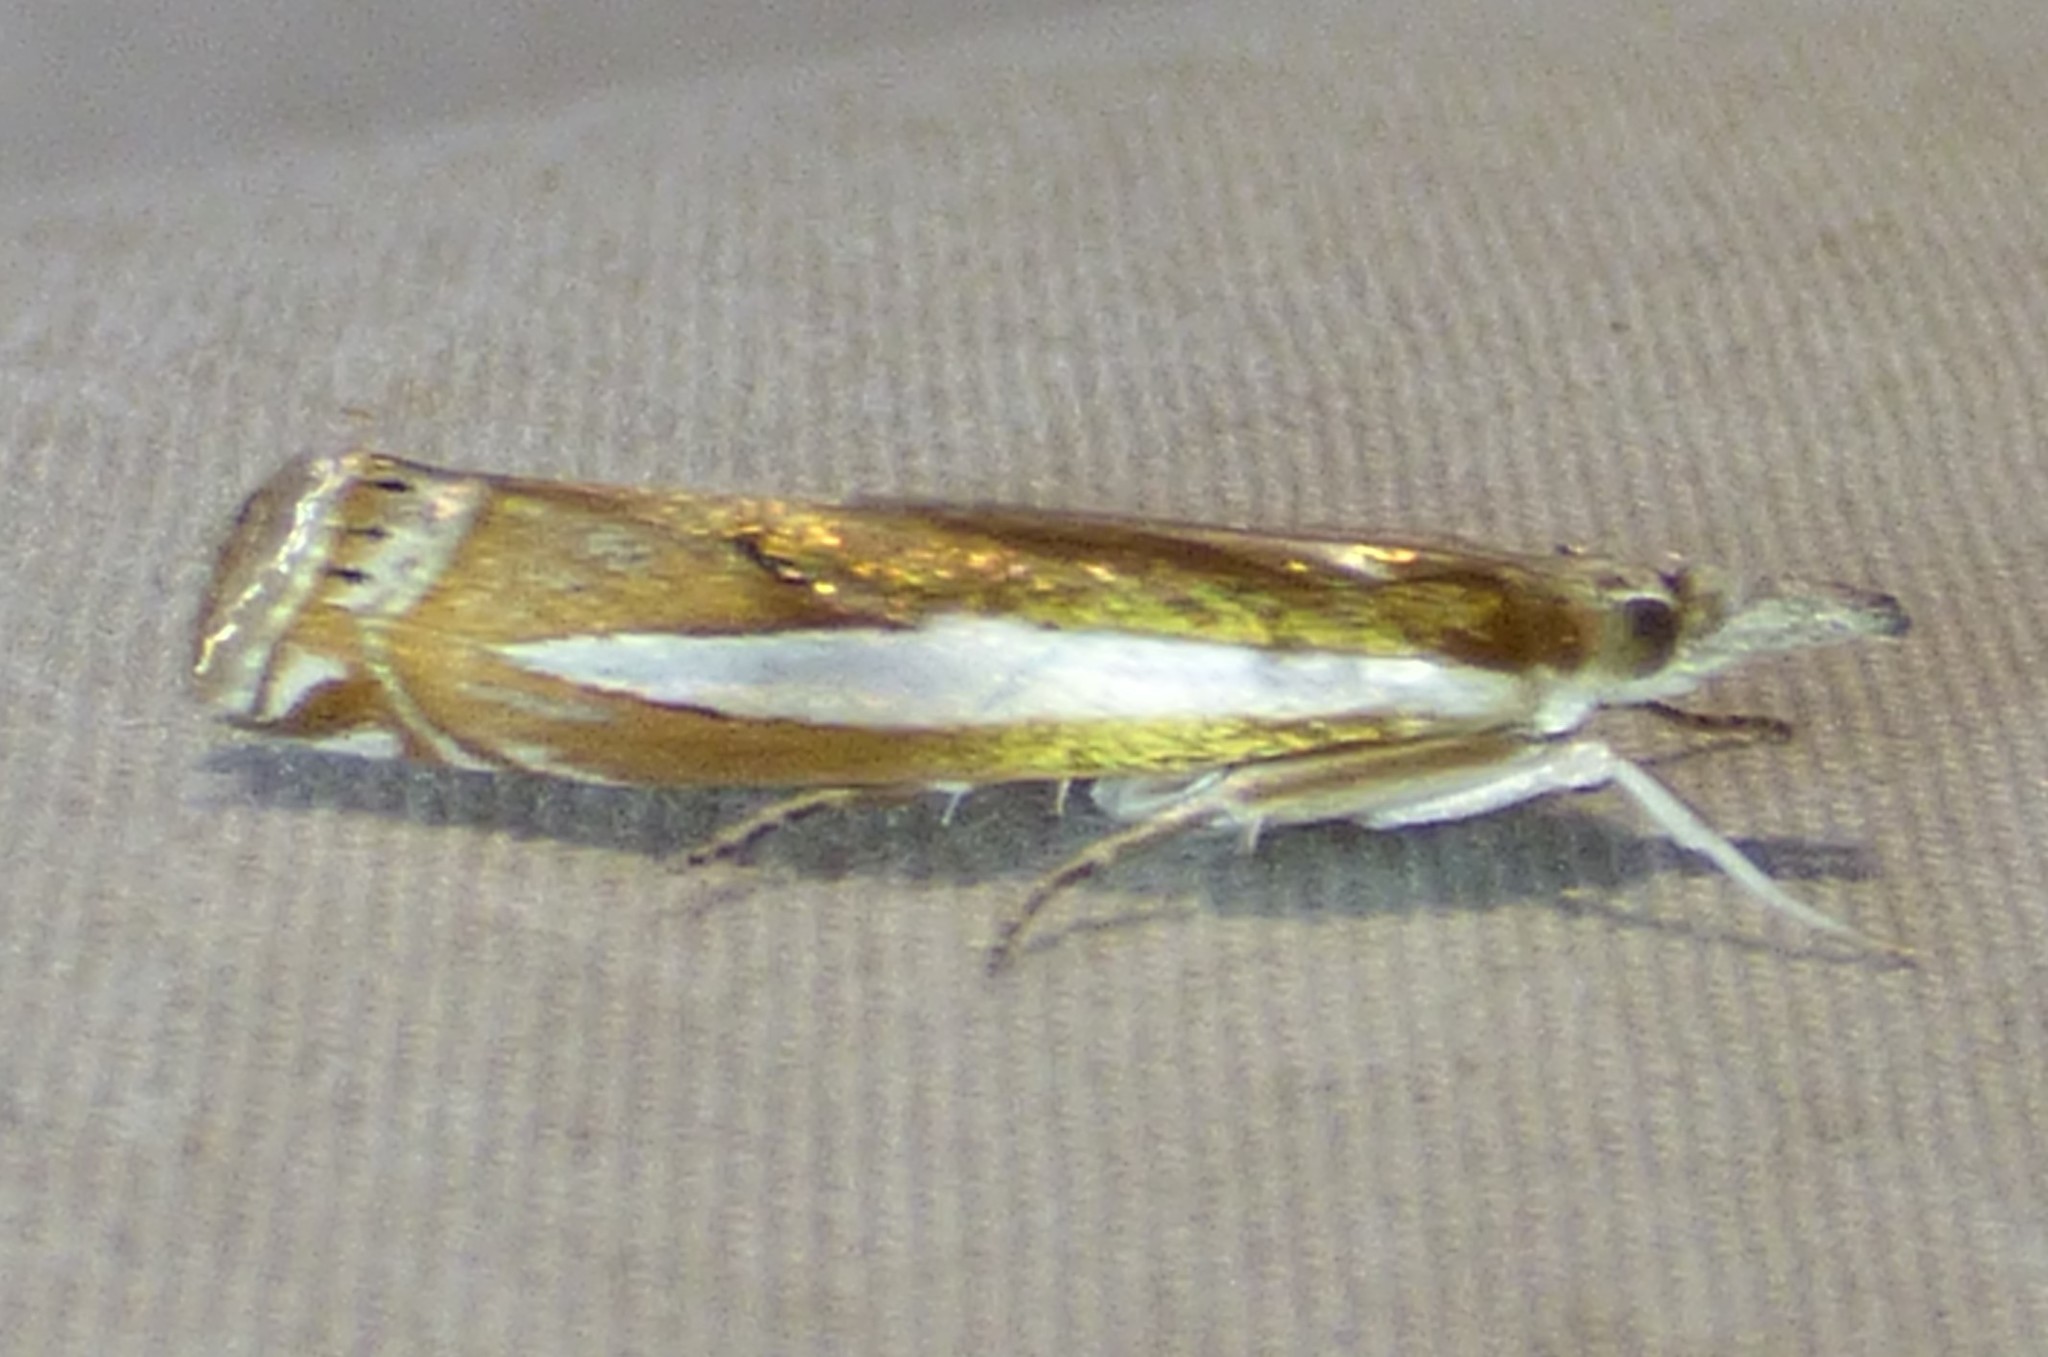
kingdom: Animalia
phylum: Arthropoda
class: Insecta
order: Lepidoptera
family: Crambidae
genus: Crambus
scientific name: Crambus praefectellus
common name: Common grass-veneer
